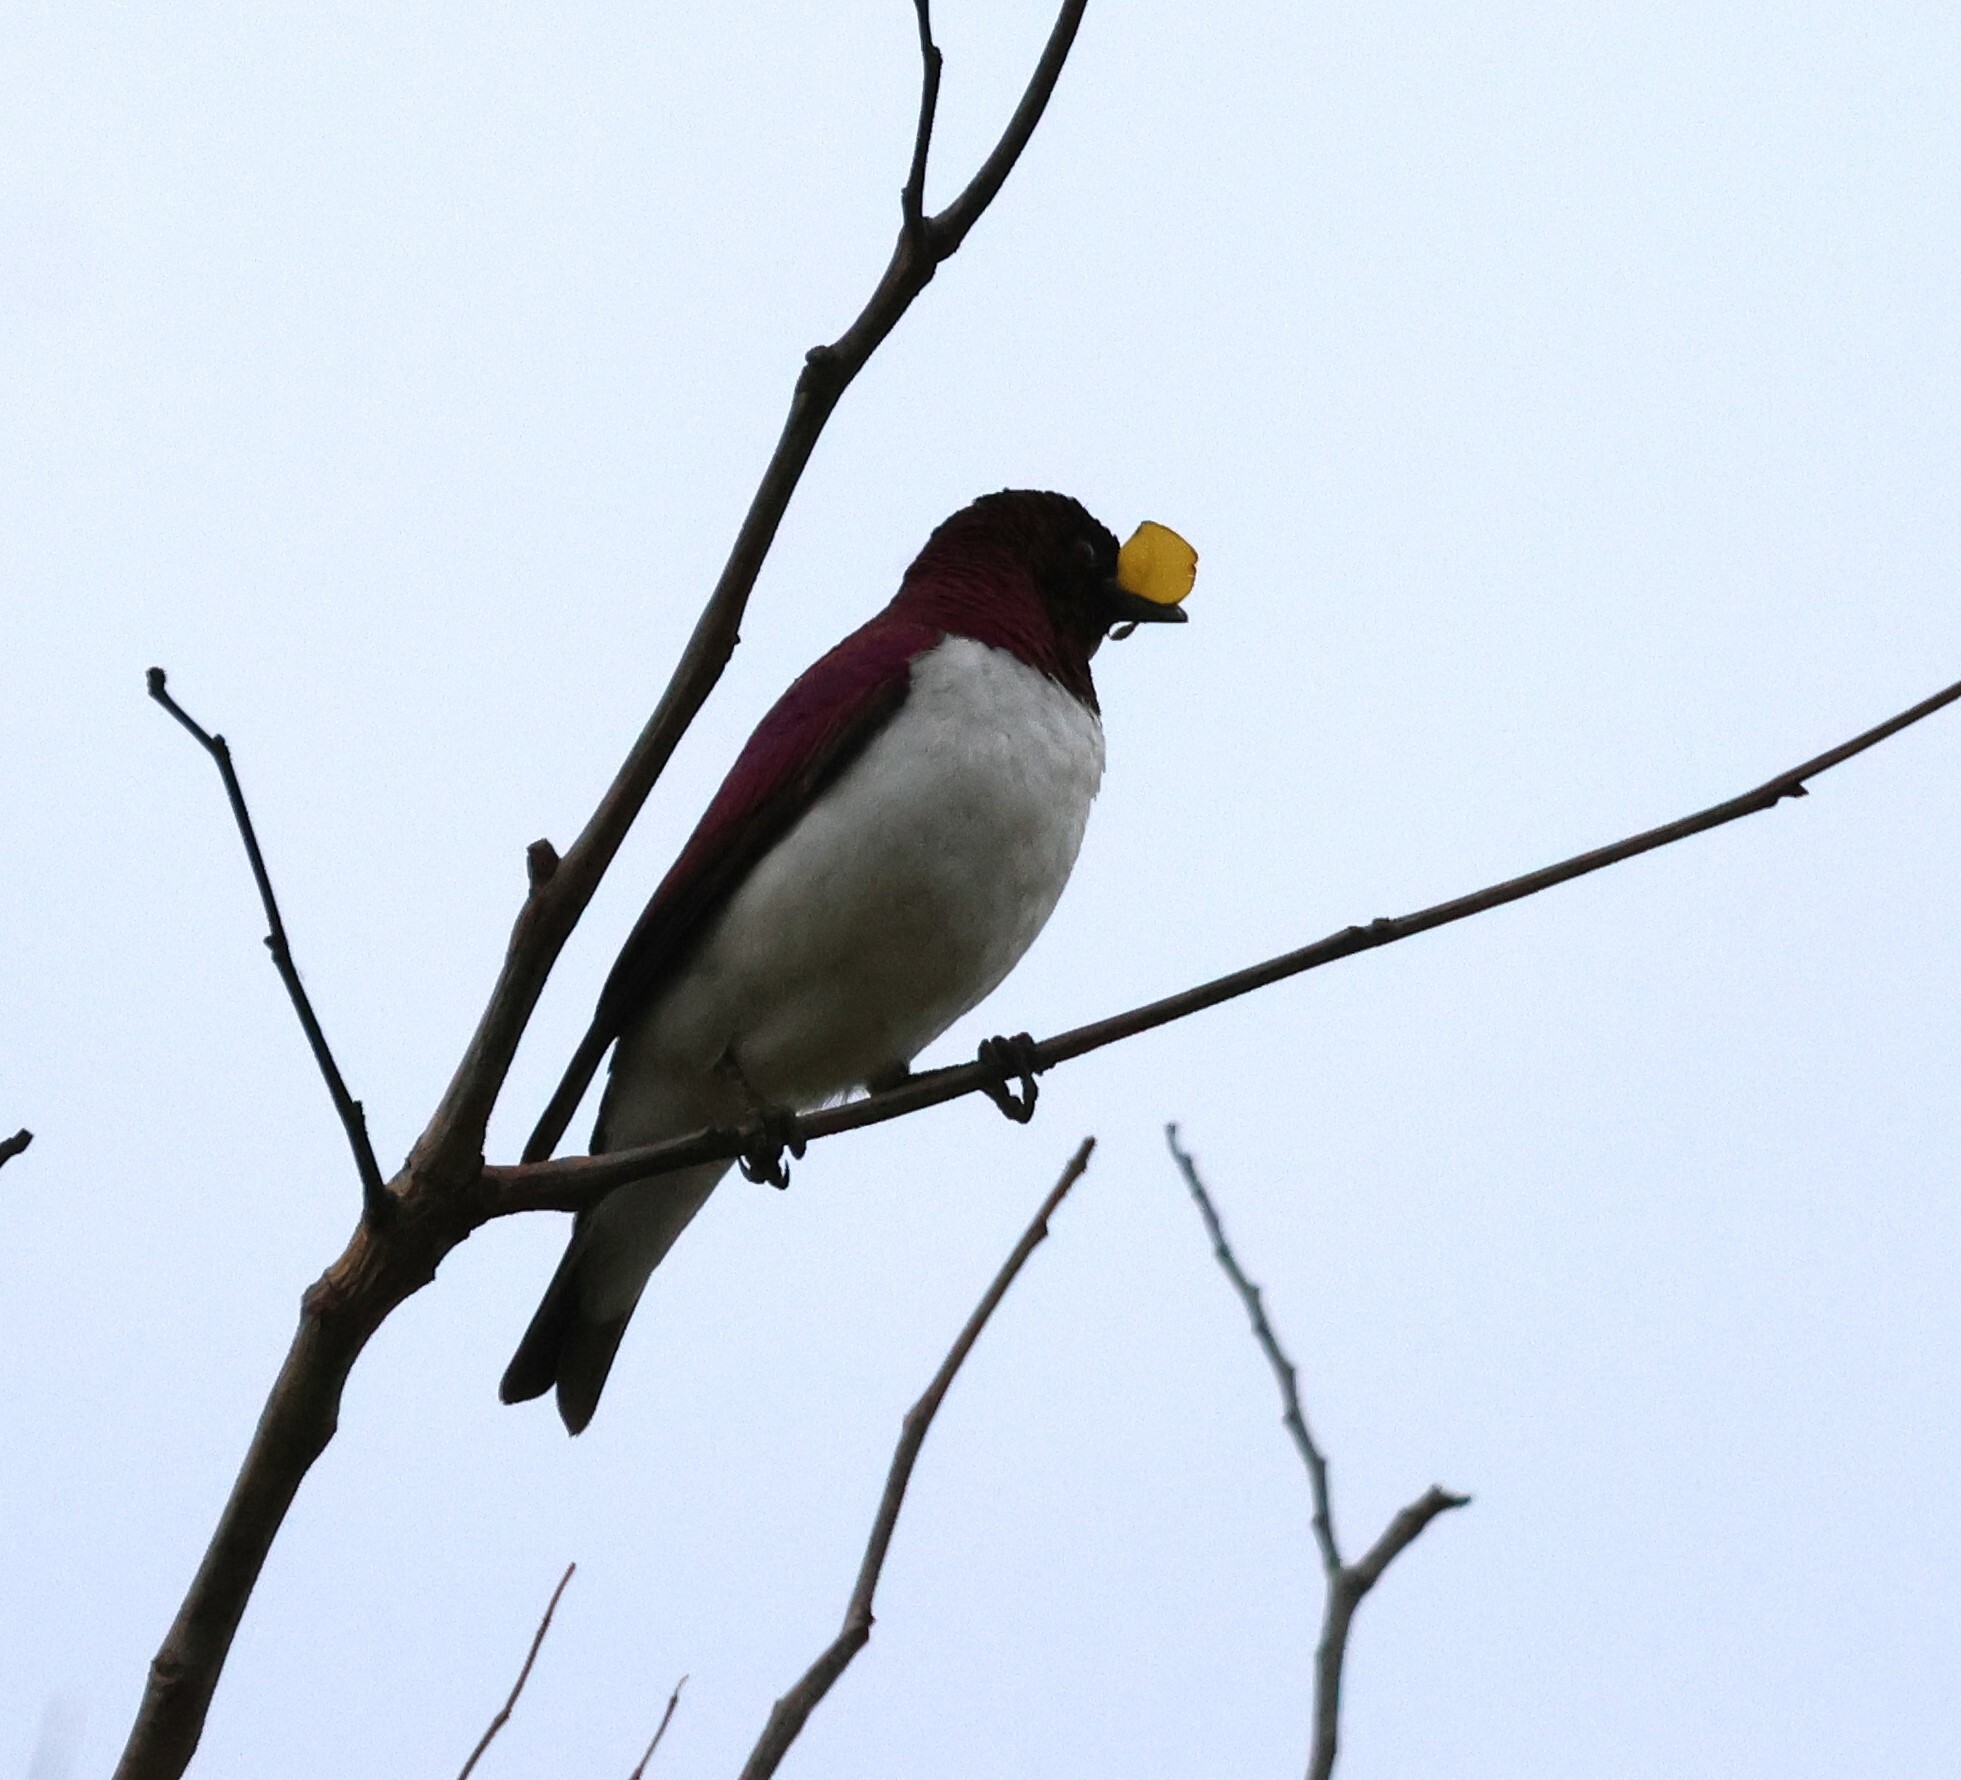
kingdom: Animalia
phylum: Chordata
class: Aves
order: Passeriformes
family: Sturnidae
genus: Cinnyricinclus
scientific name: Cinnyricinclus leucogaster
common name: Violet-backed starling
